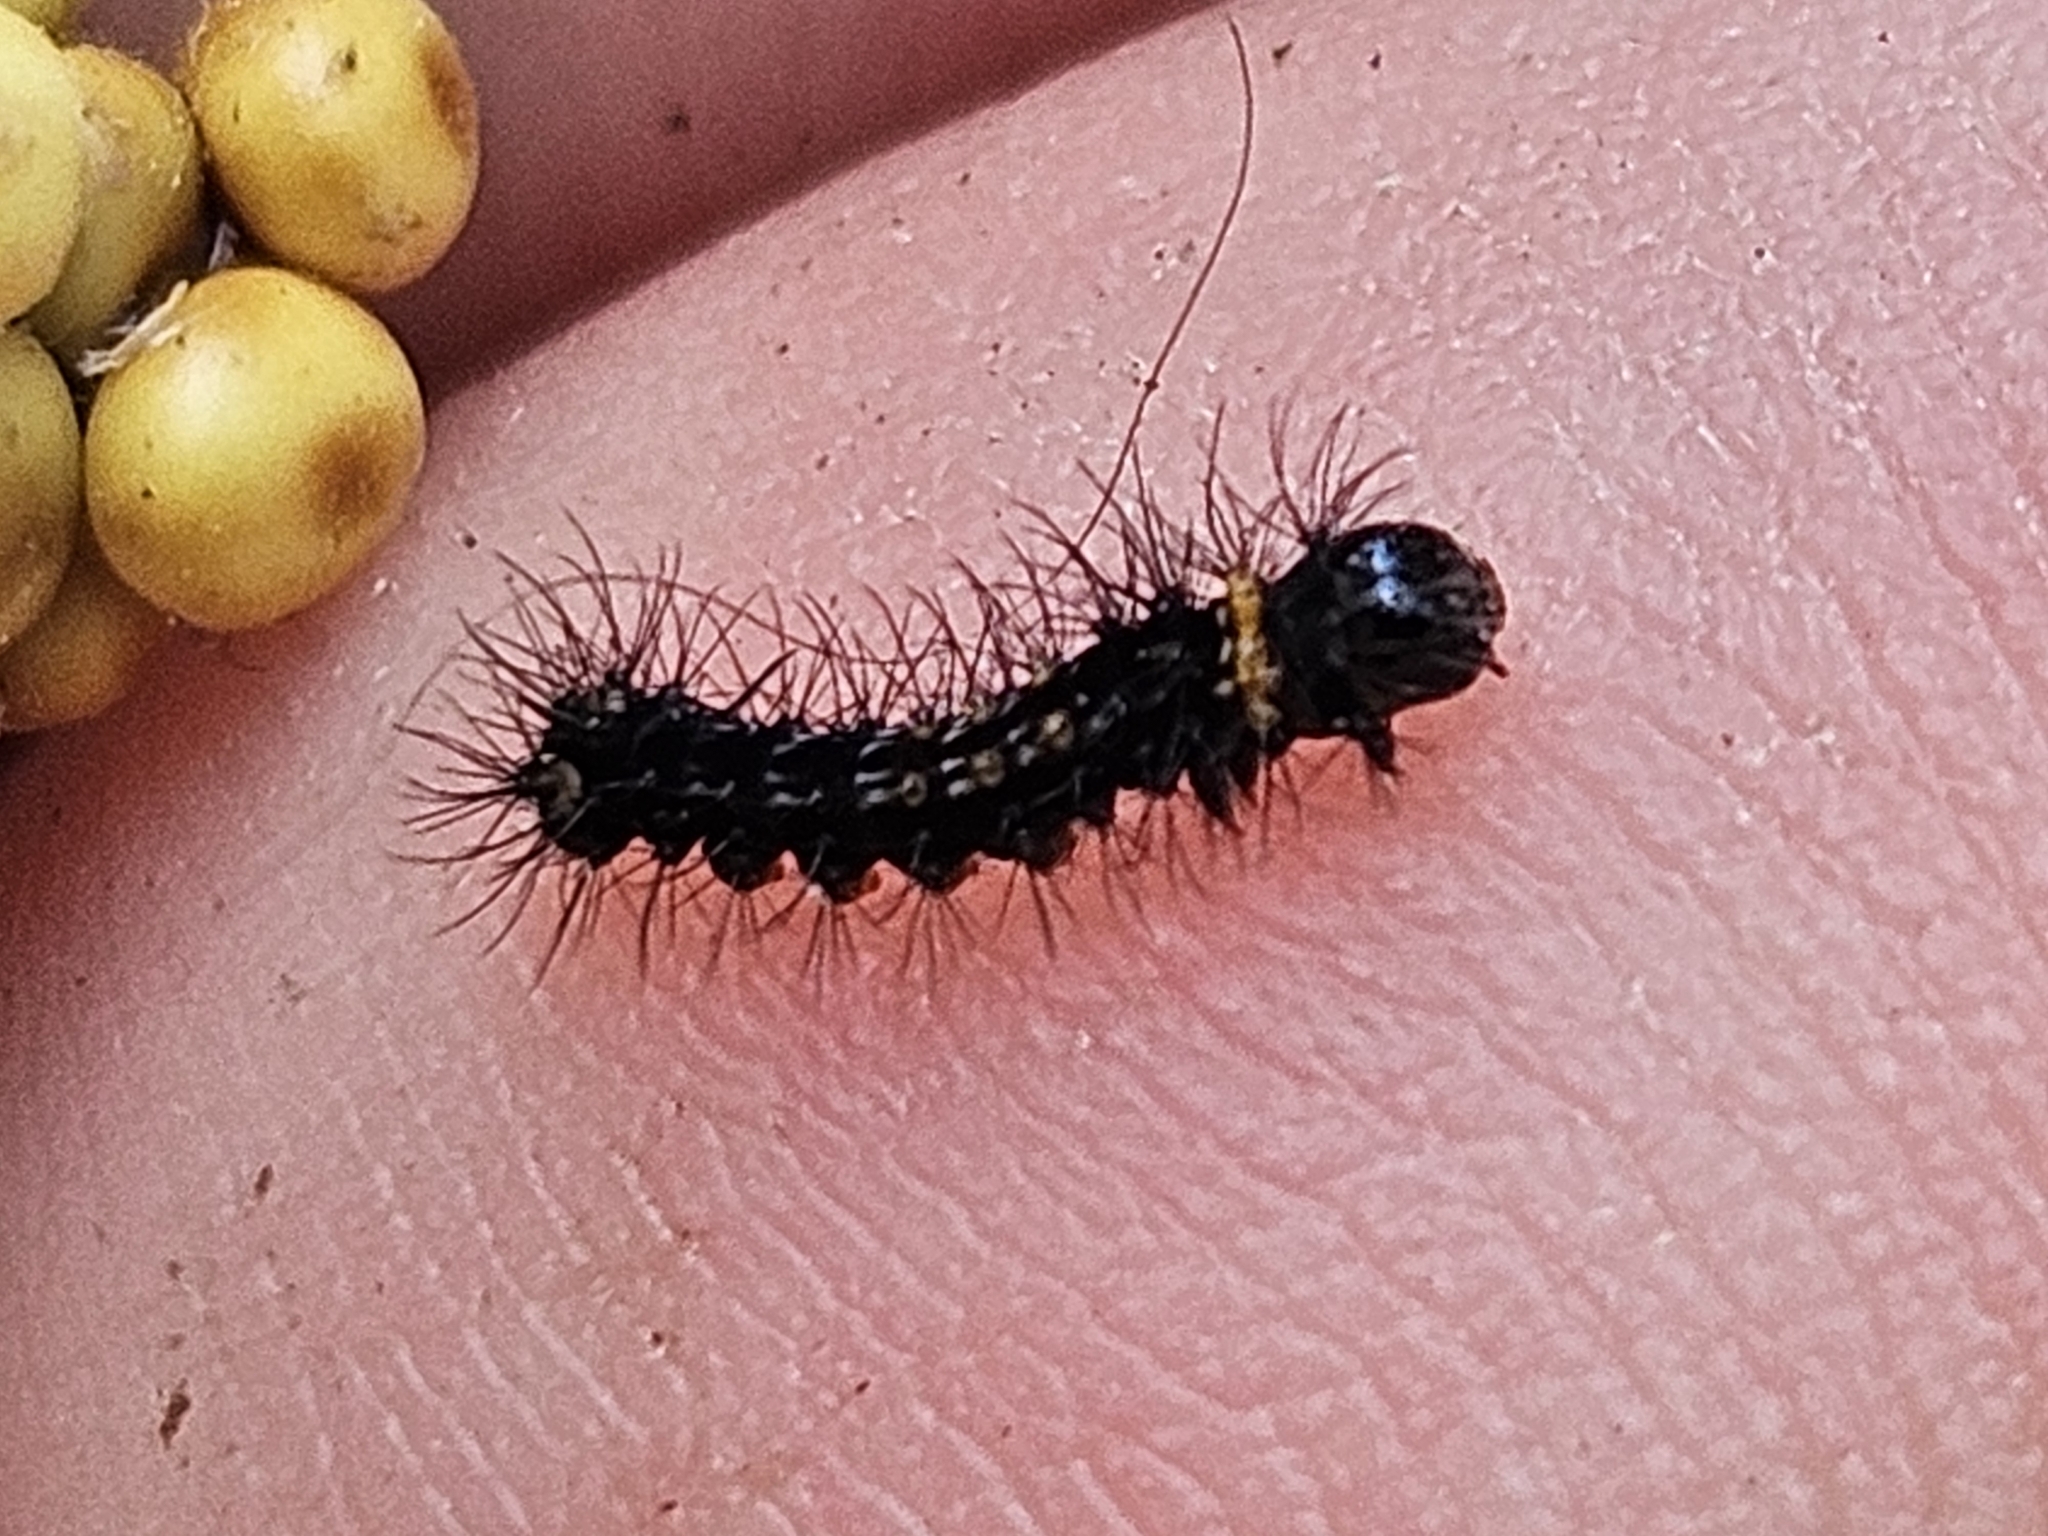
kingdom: Animalia
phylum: Arthropoda
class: Insecta
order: Lepidoptera
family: Saturniidae
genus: Opodiphthera
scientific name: Opodiphthera
